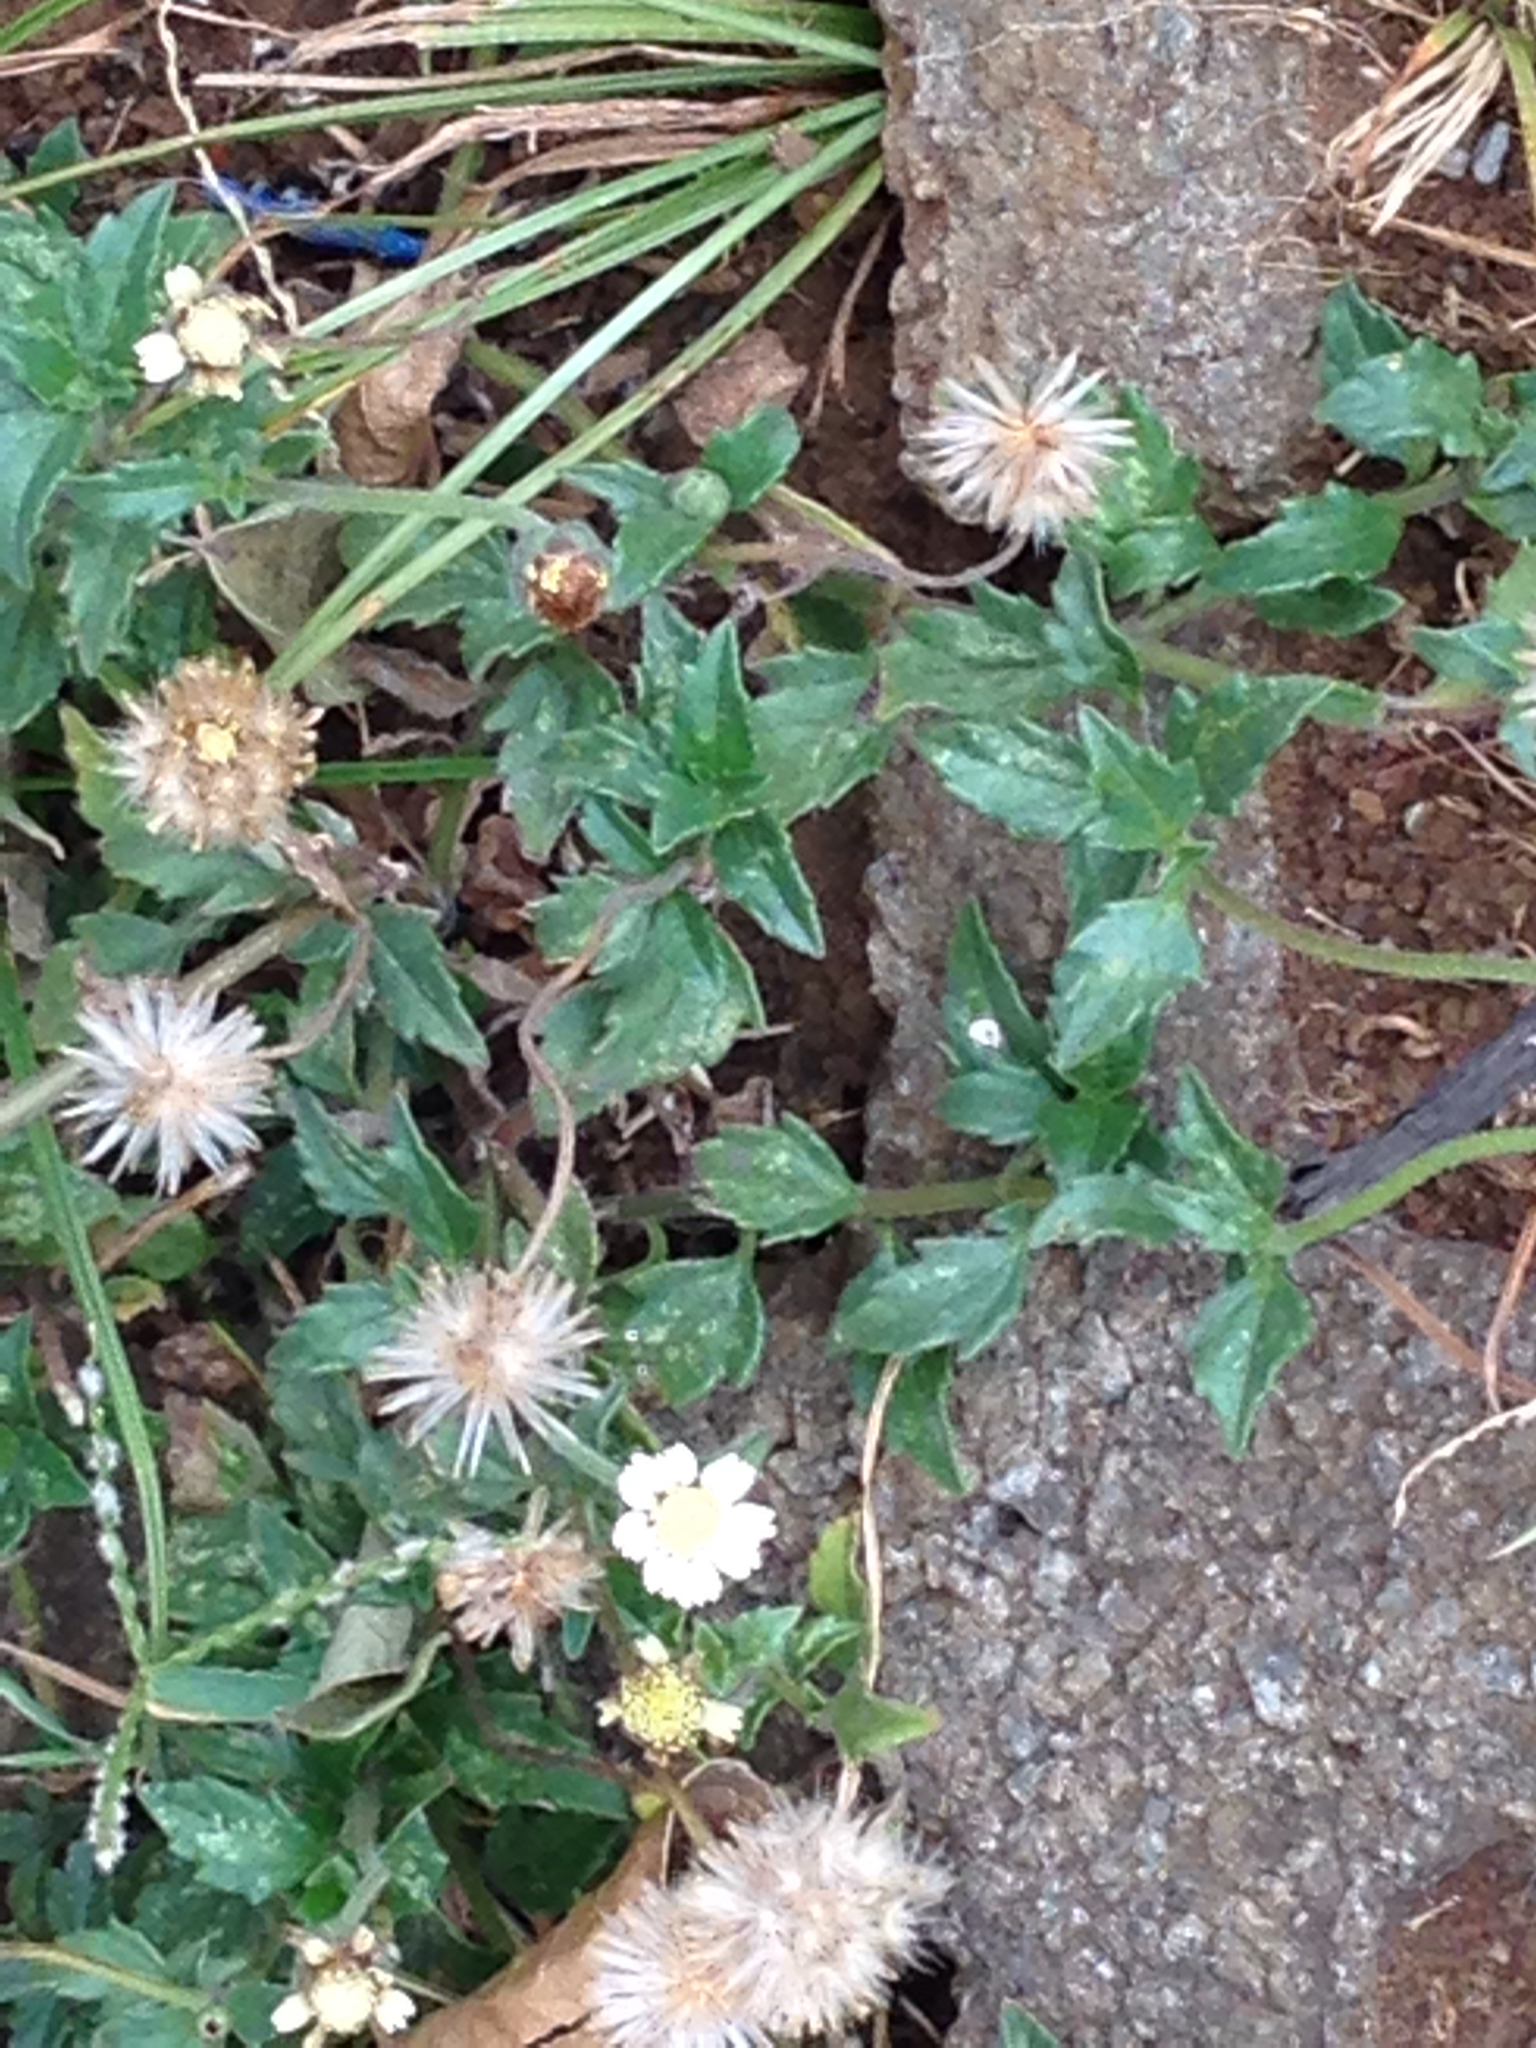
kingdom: Plantae
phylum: Tracheophyta
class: Magnoliopsida
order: Asterales
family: Asteraceae
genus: Tridax
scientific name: Tridax procumbens
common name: Coatbuttons
